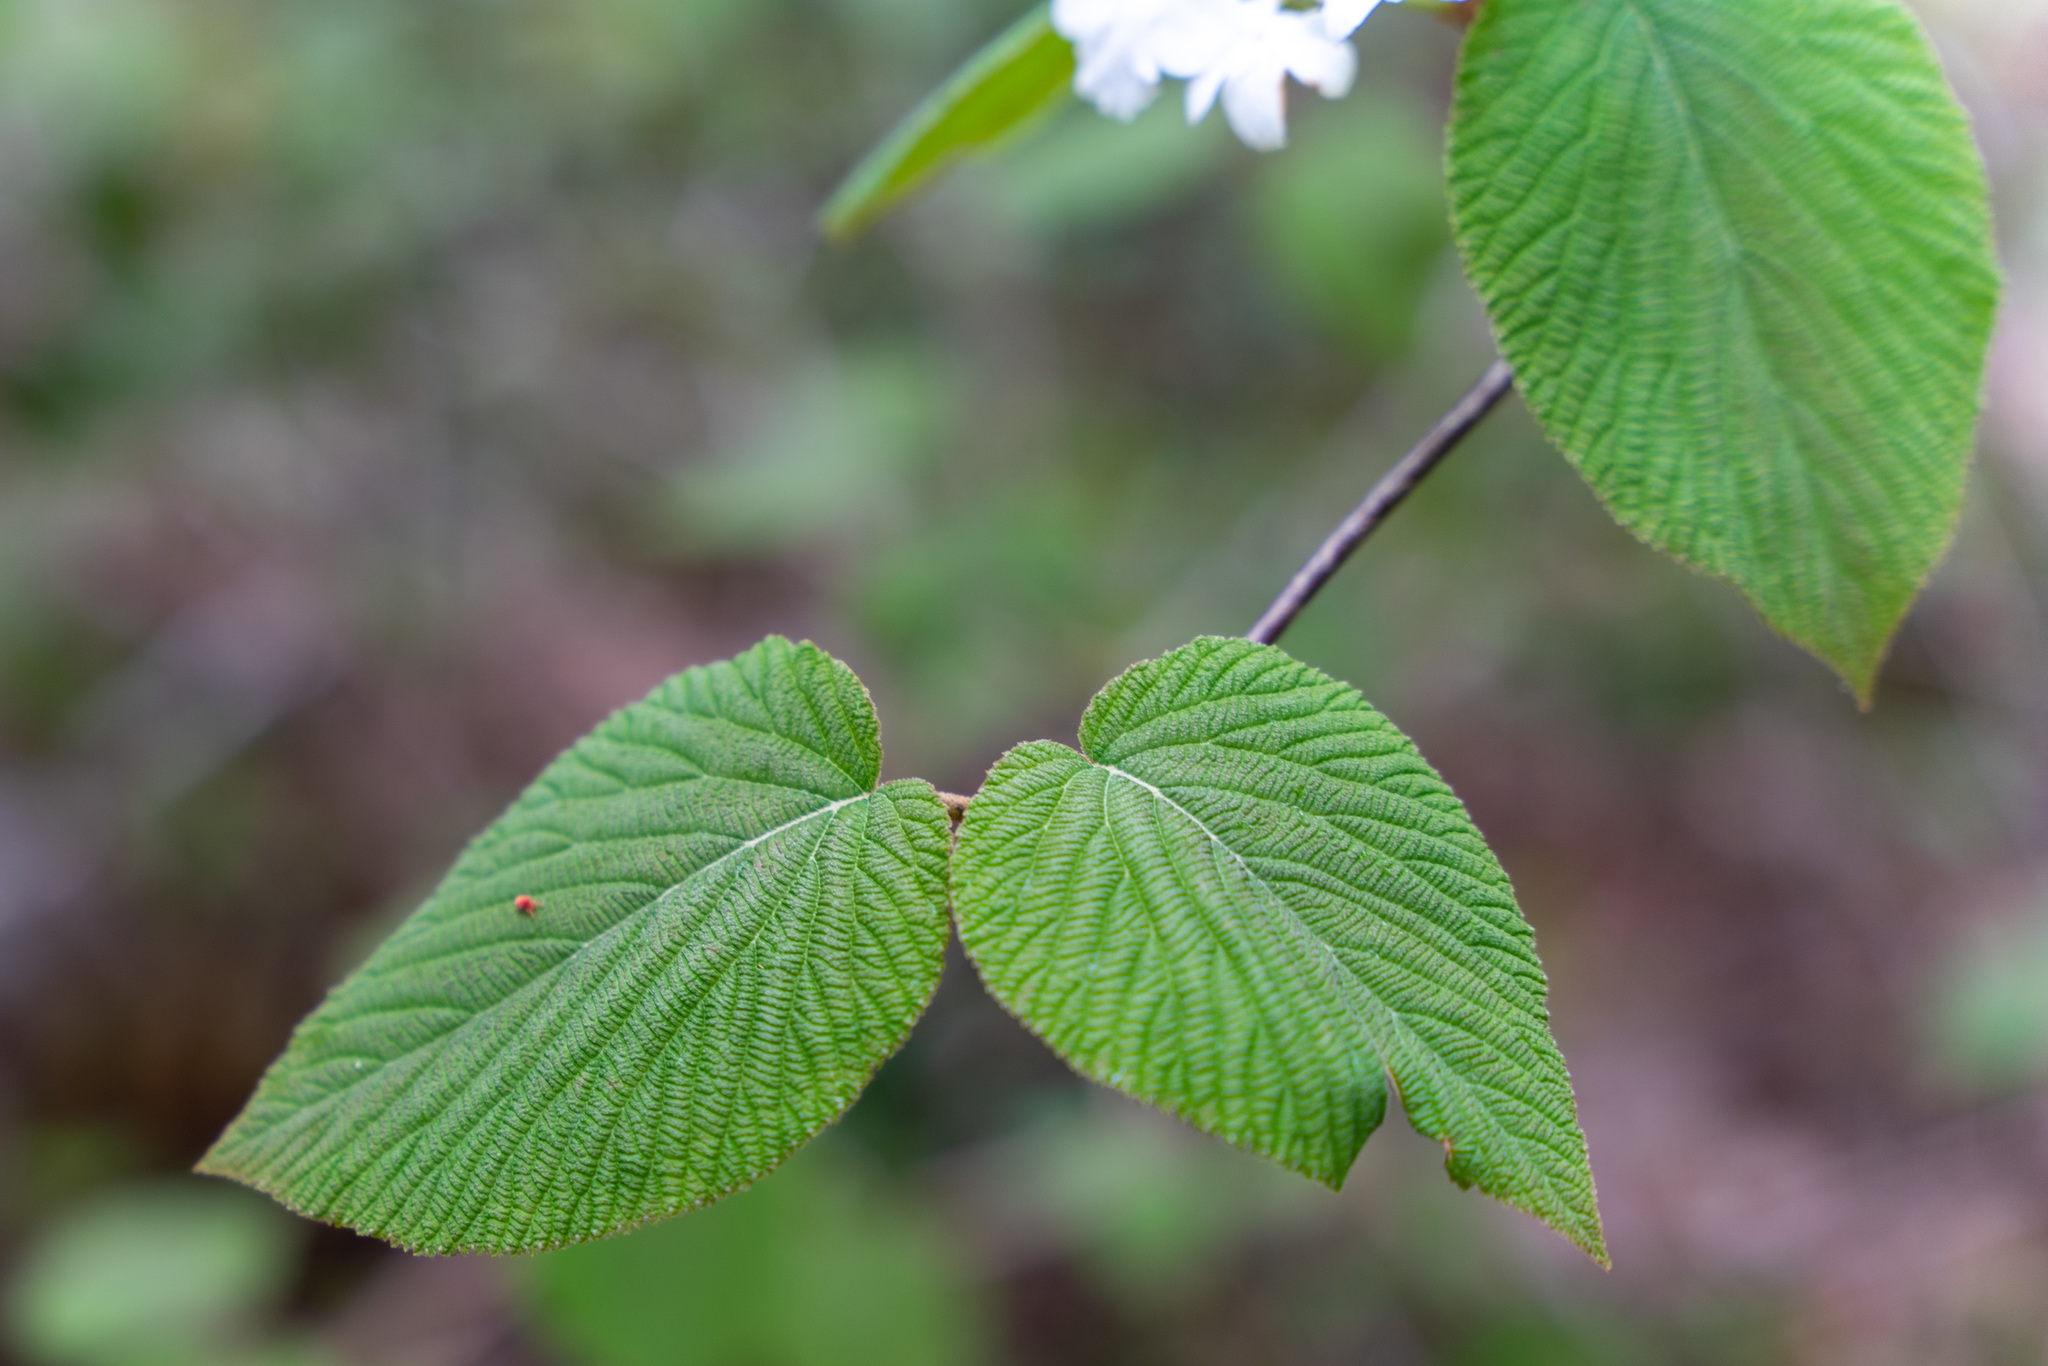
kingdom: Plantae
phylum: Tracheophyta
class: Magnoliopsida
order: Dipsacales
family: Viburnaceae
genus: Viburnum
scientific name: Viburnum lantanoides
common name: Hobblebush
